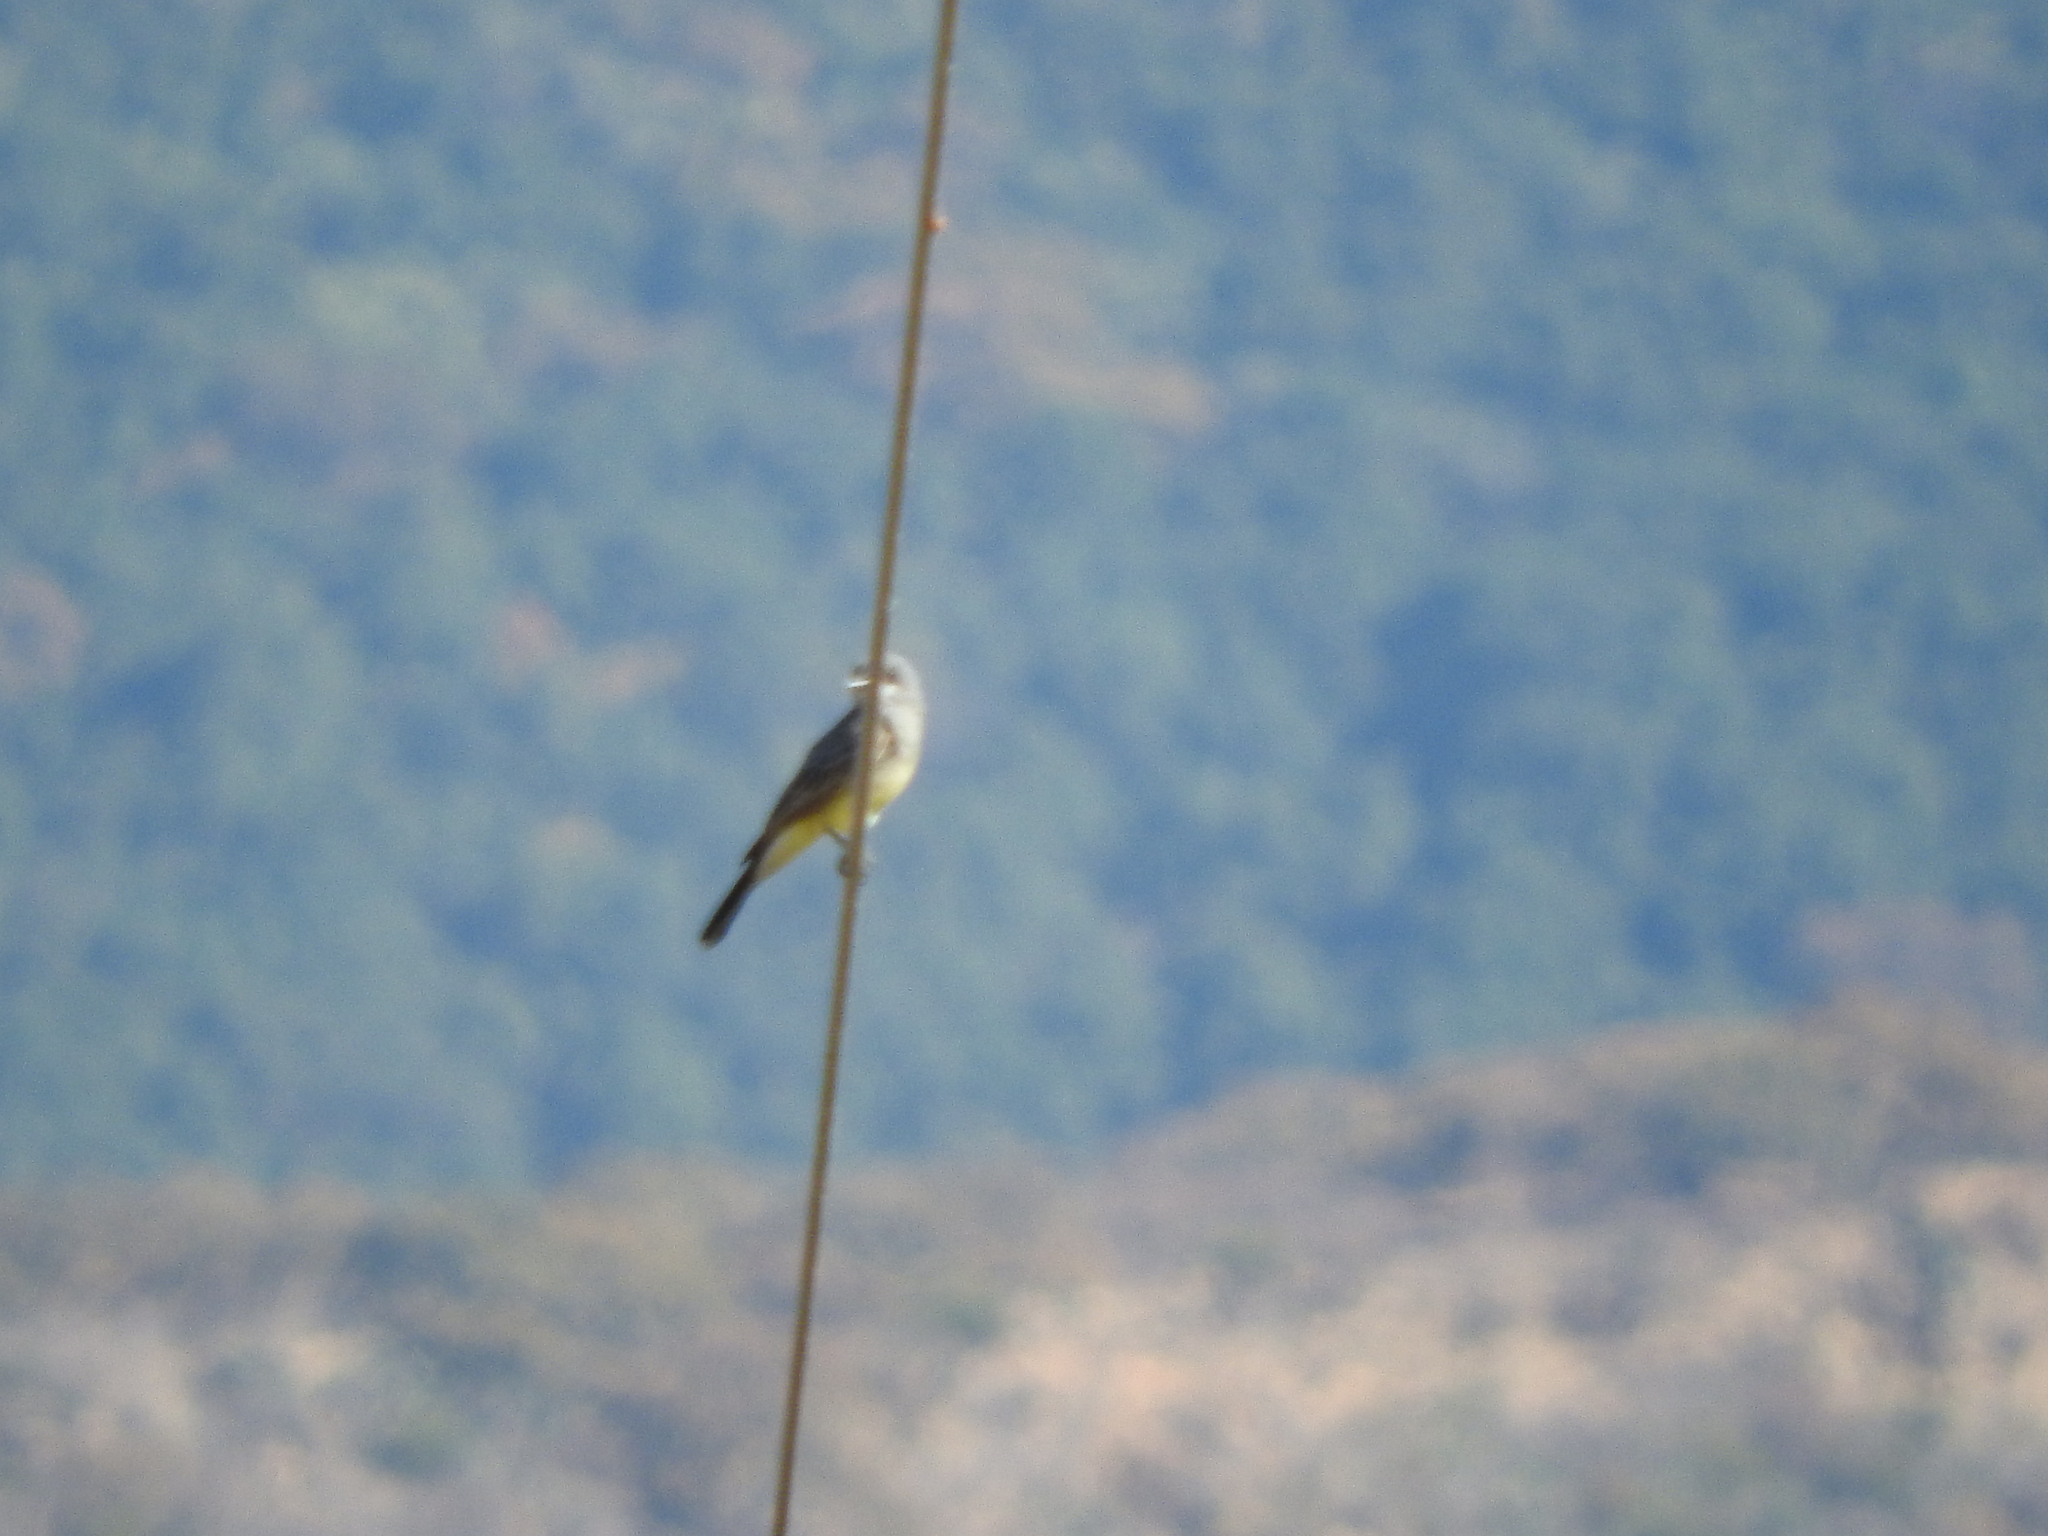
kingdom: Animalia
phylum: Chordata
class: Aves
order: Passeriformes
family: Tyrannidae
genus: Tyrannus
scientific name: Tyrannus vociferans
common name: Cassin's kingbird
